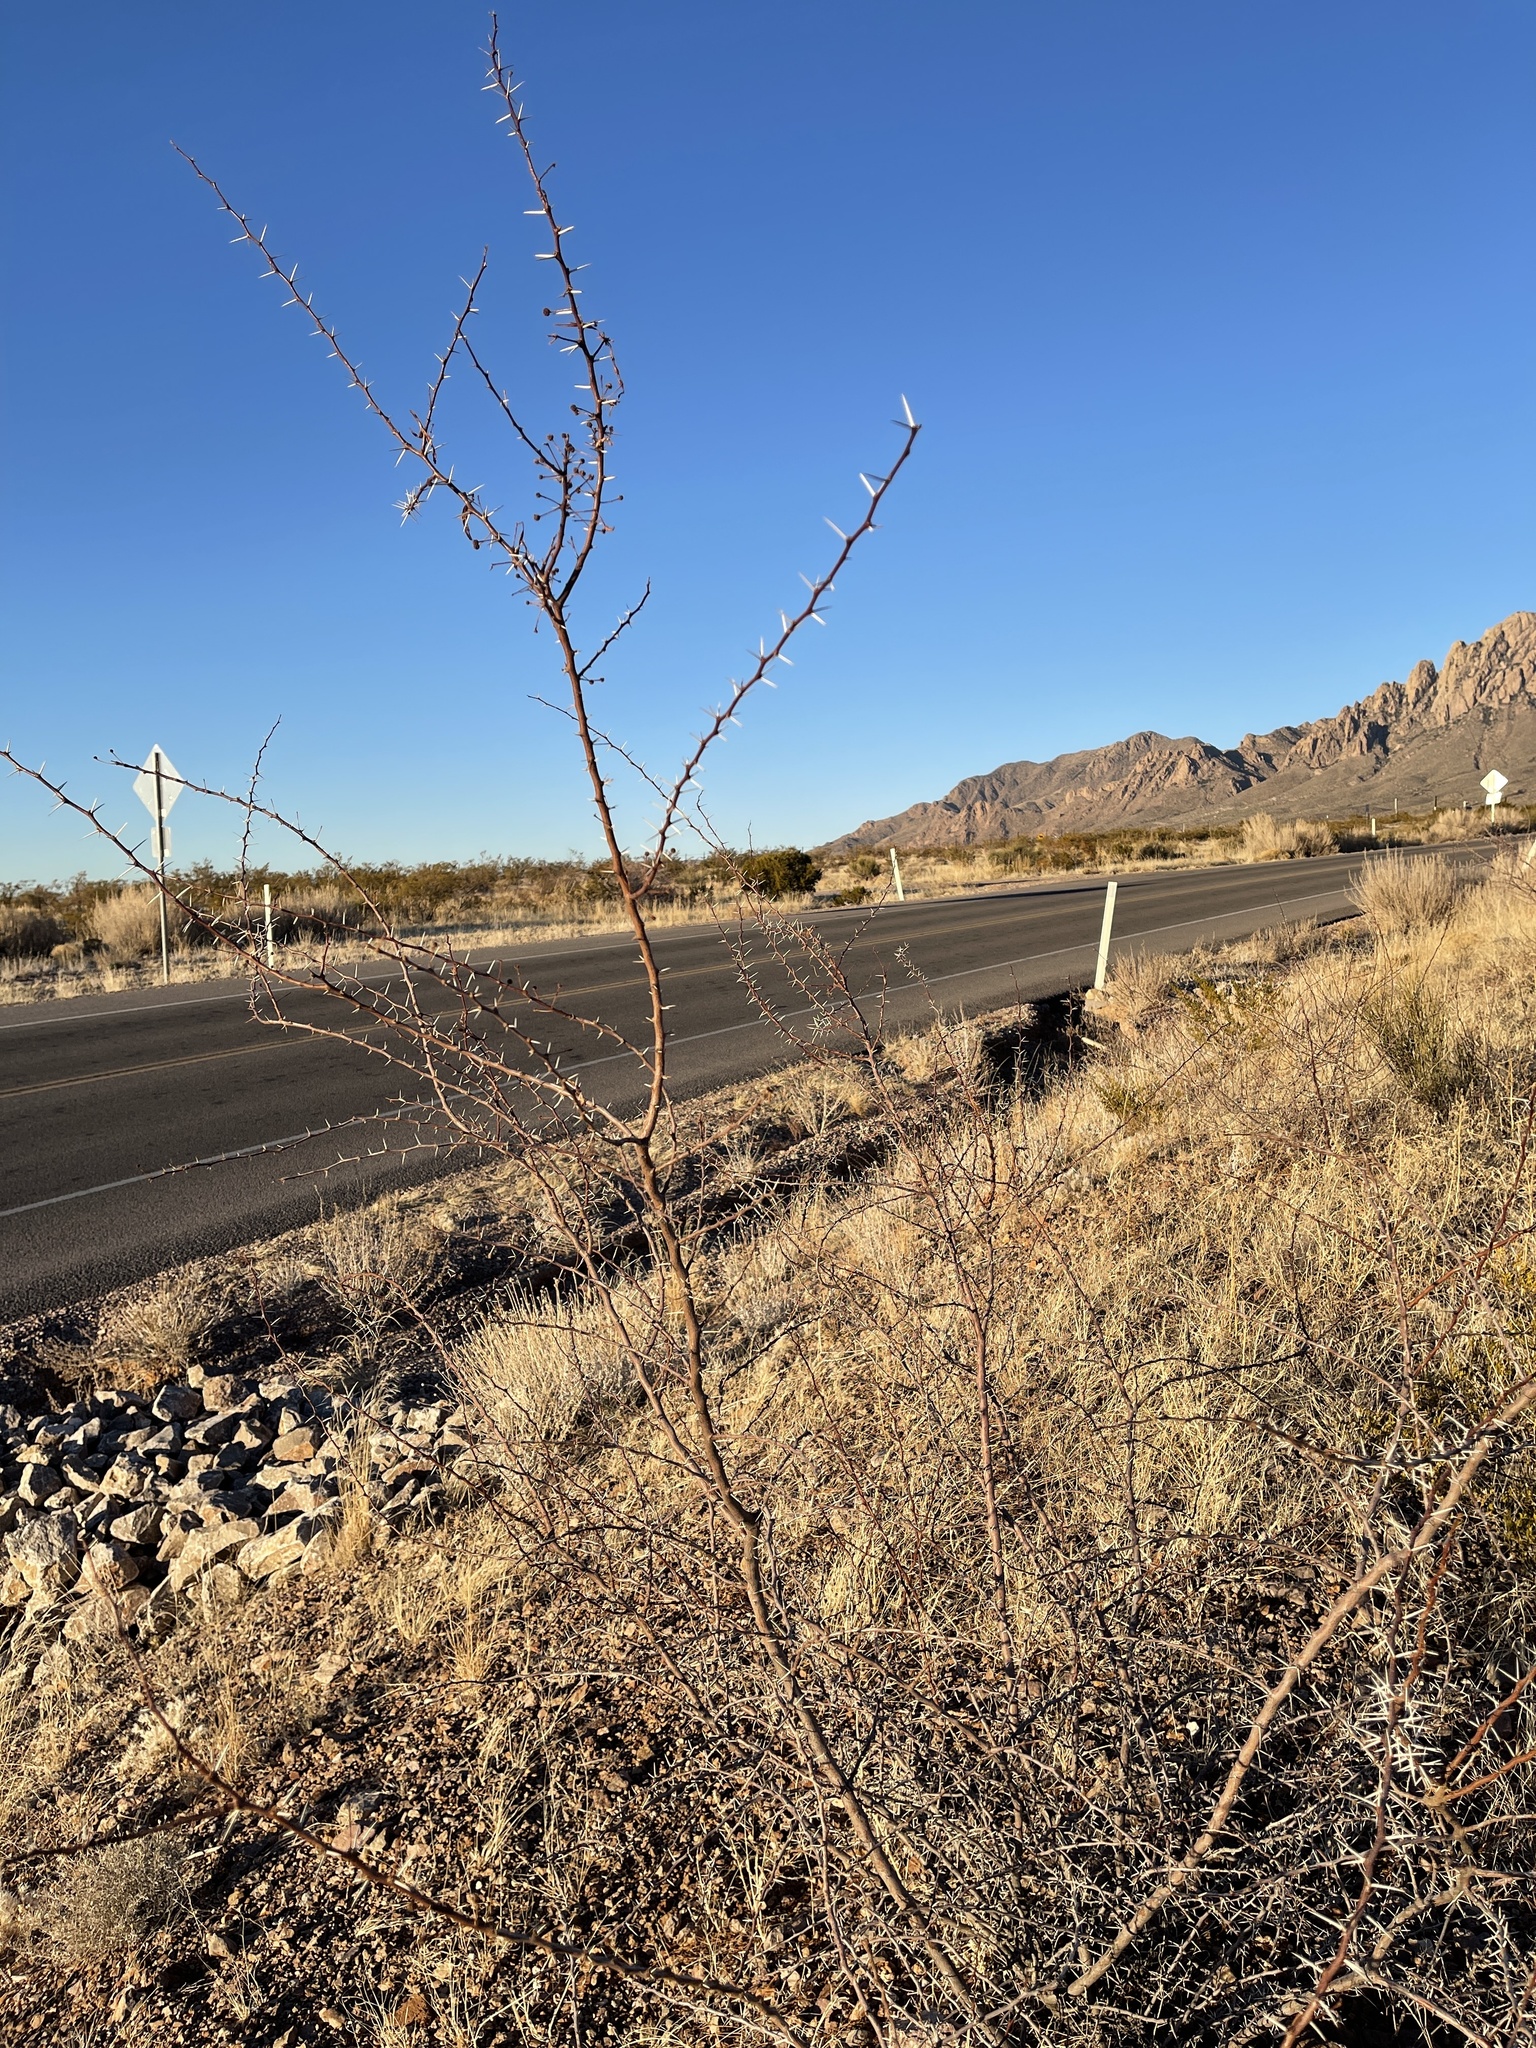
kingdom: Plantae
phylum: Tracheophyta
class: Magnoliopsida
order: Fabales
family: Fabaceae
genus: Vachellia
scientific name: Vachellia constricta
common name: Mescat acacia
